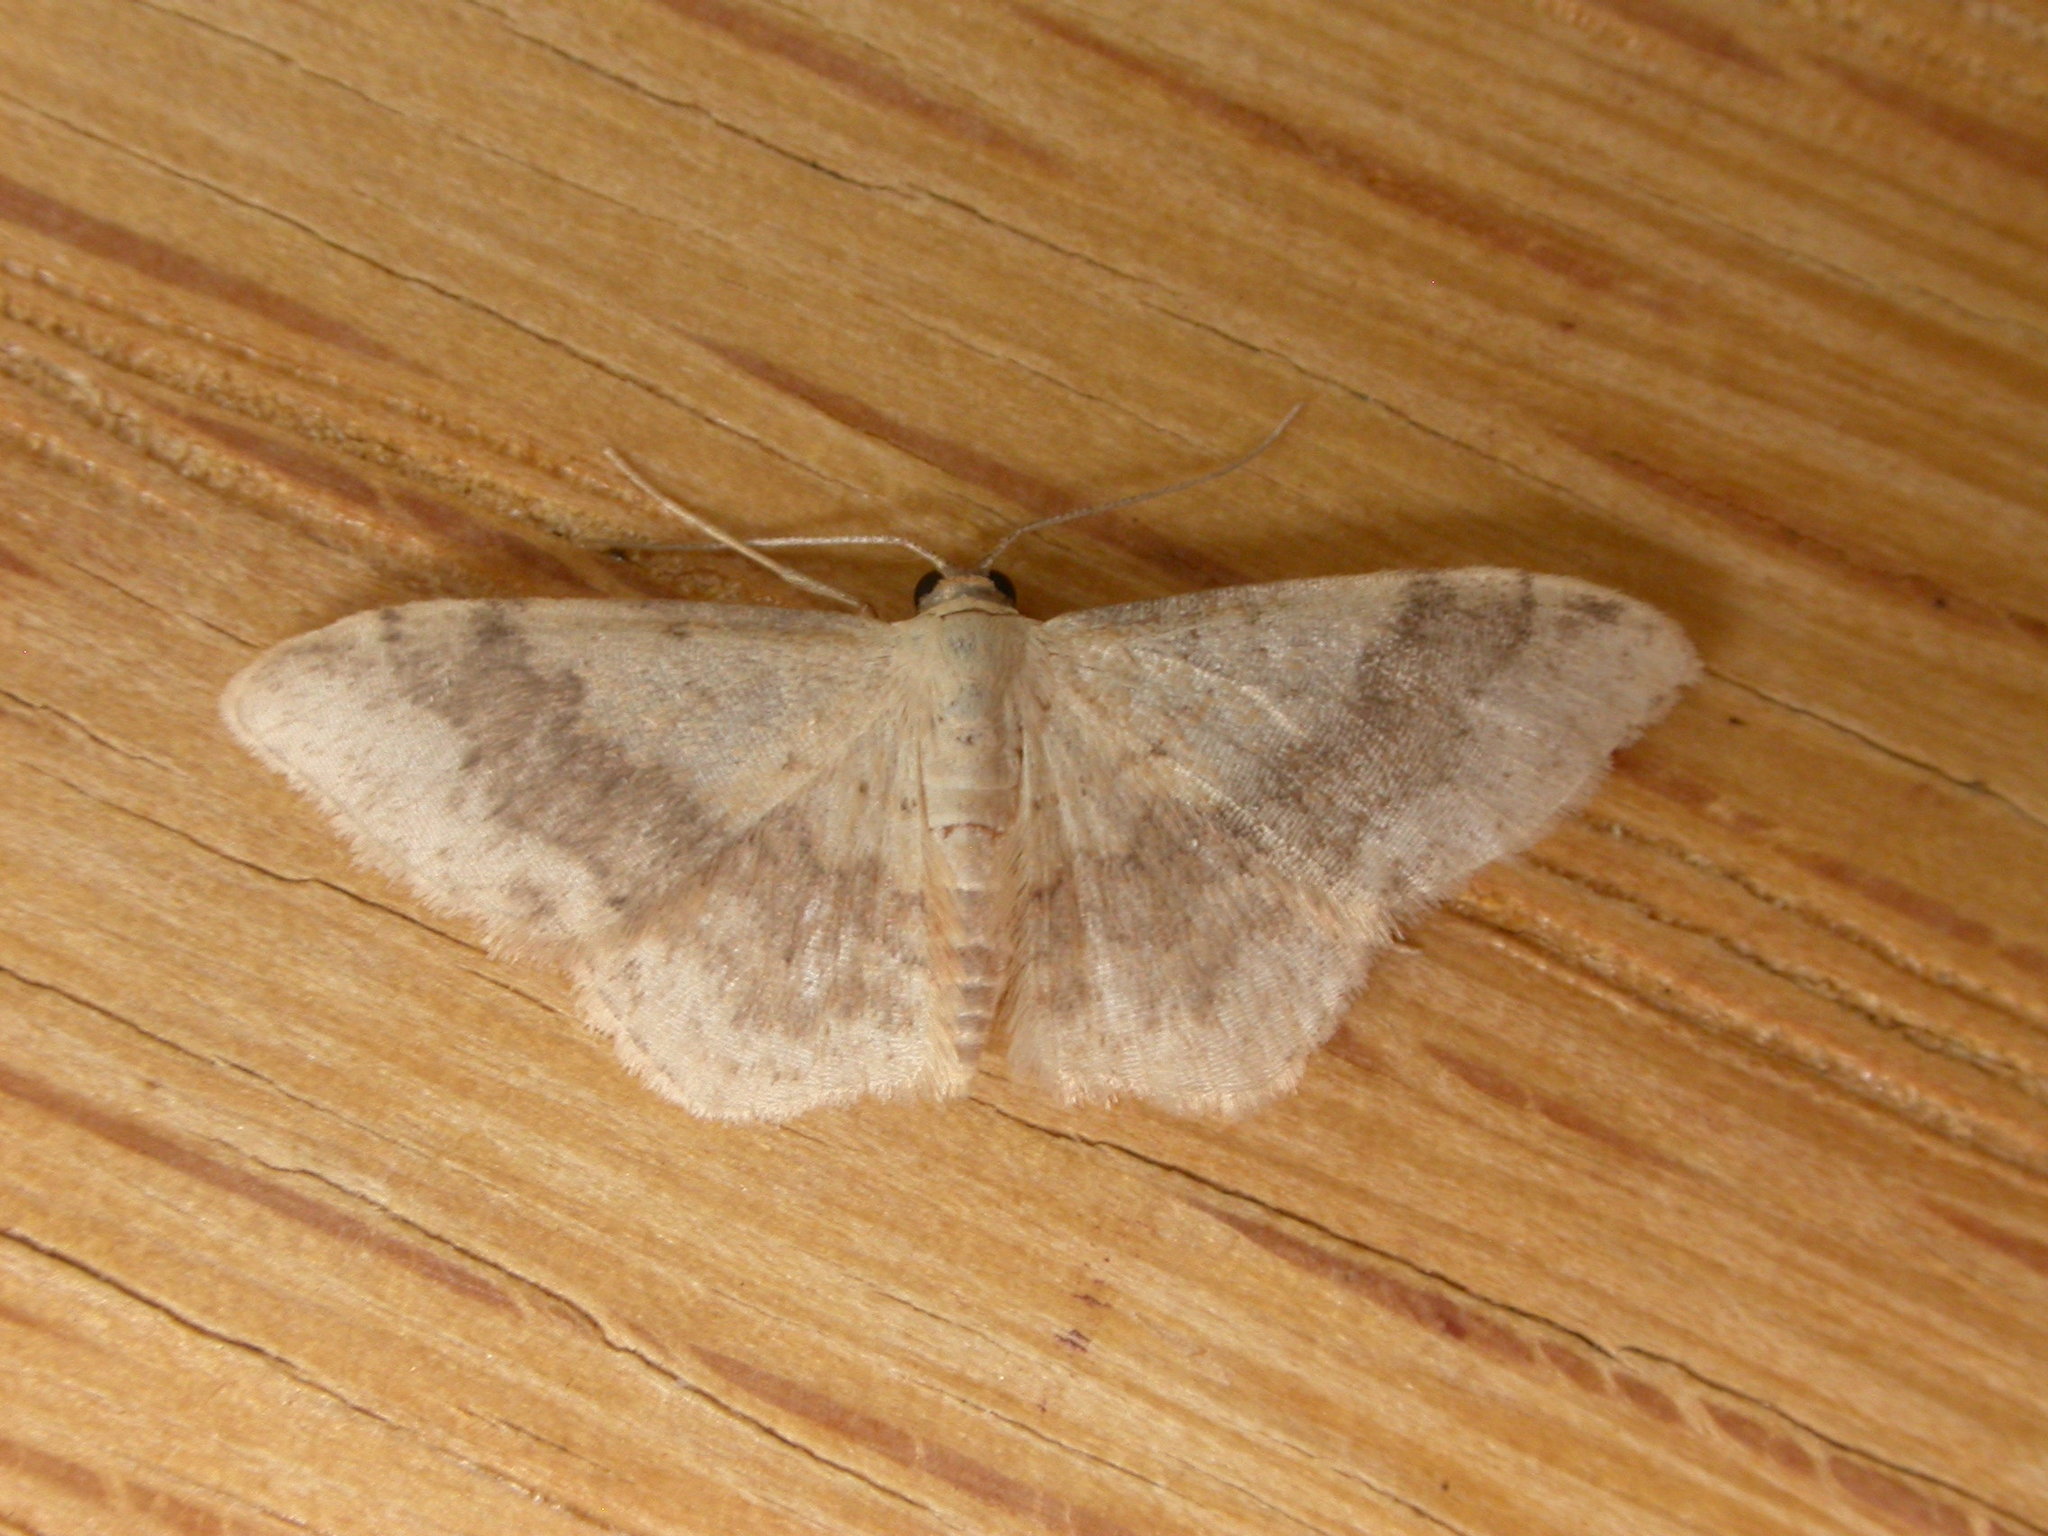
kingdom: Animalia
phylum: Arthropoda
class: Insecta
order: Lepidoptera
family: Geometridae
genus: Idaea
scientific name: Idaea halmaea
